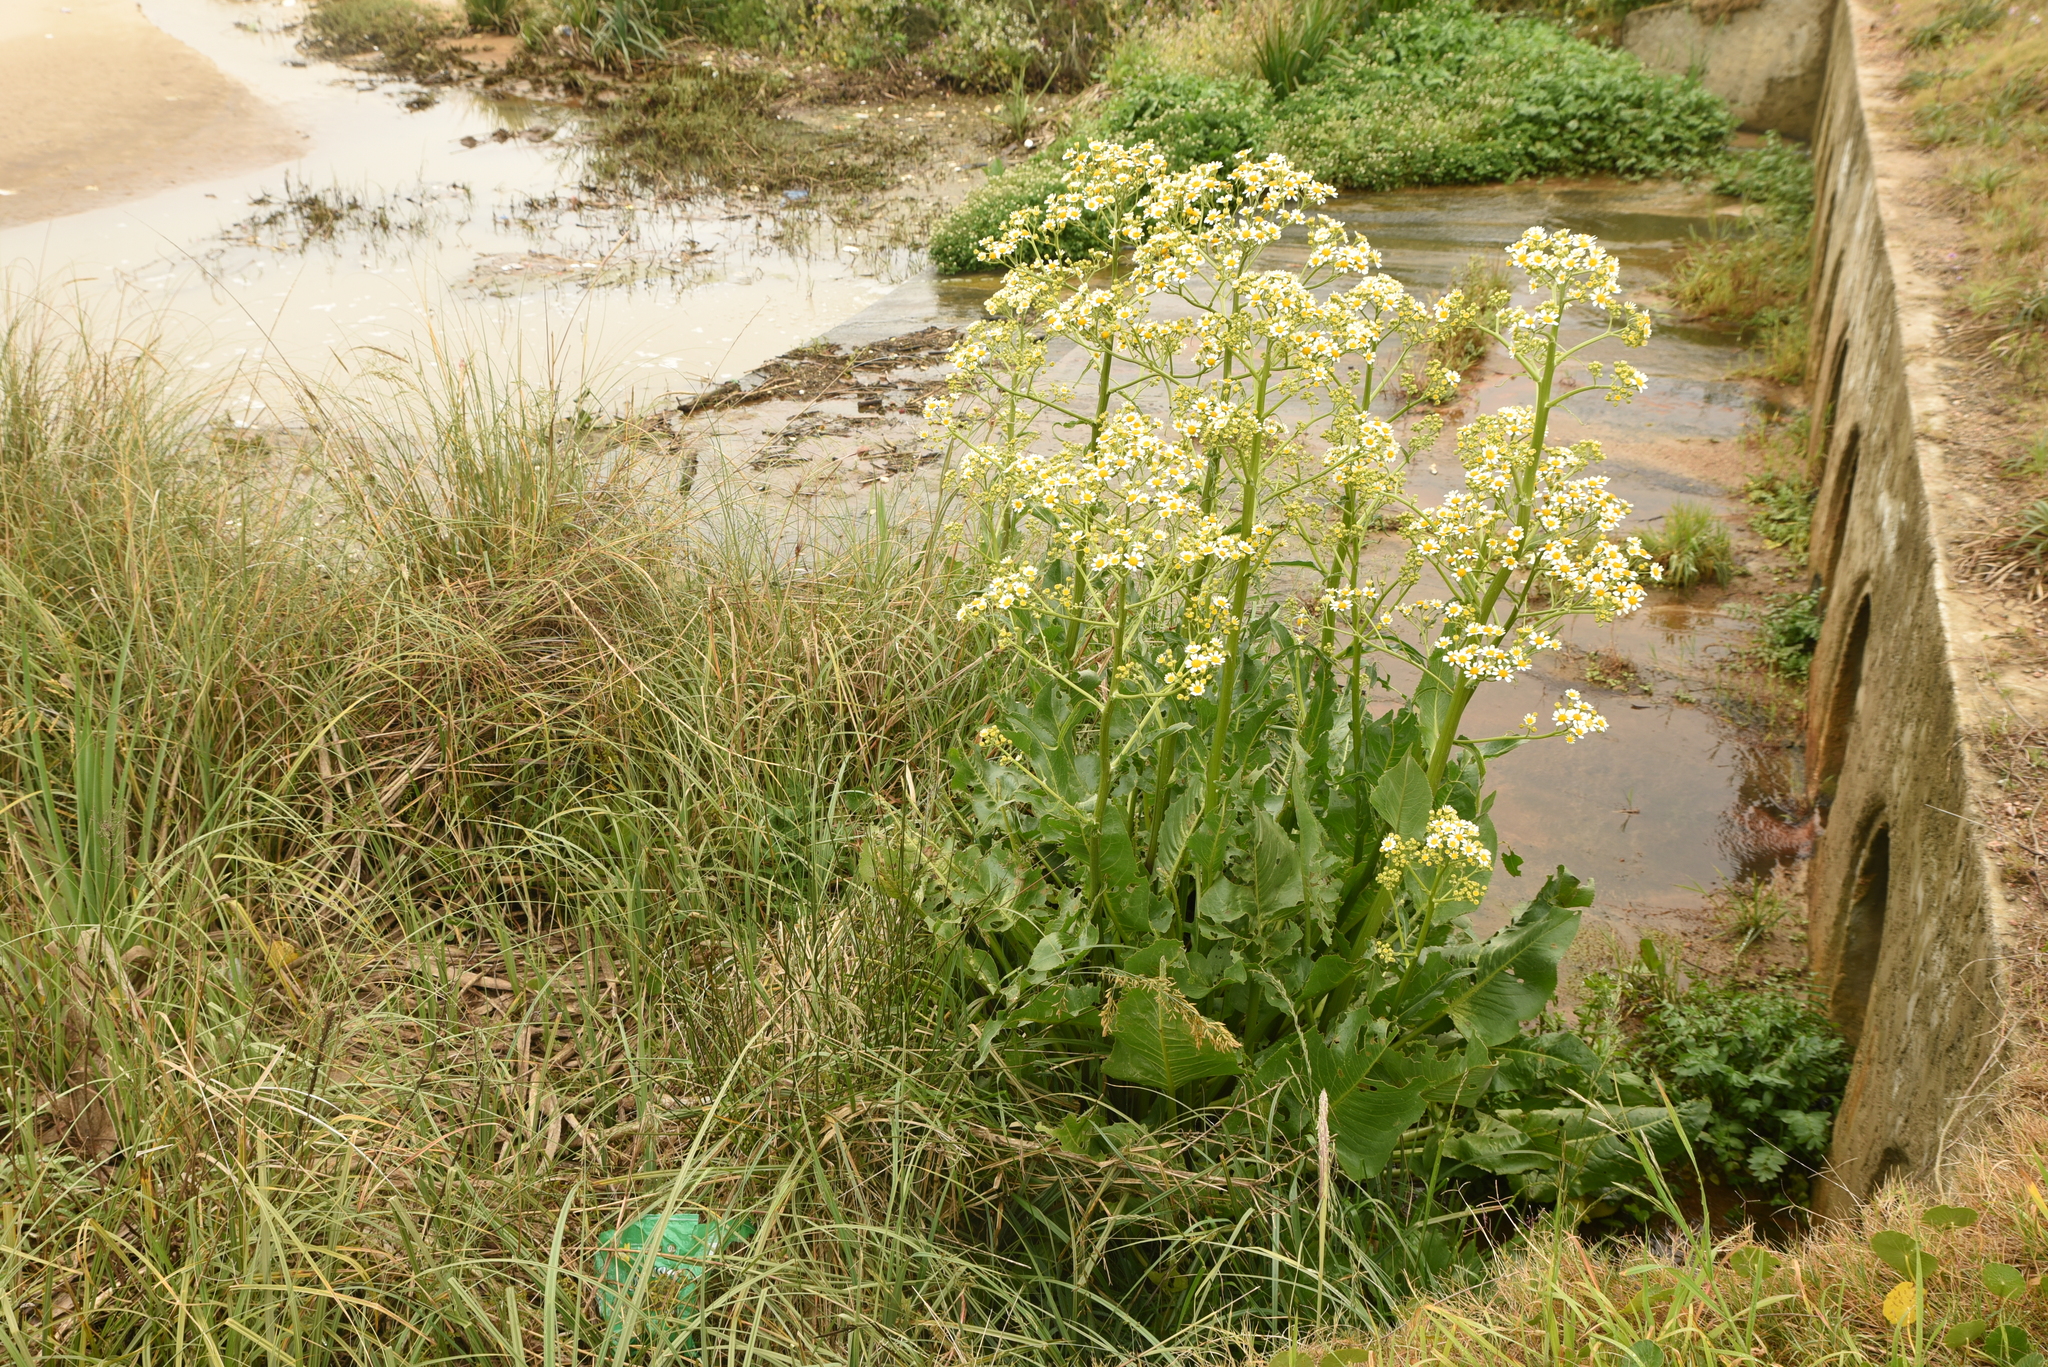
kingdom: Plantae
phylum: Tracheophyta
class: Magnoliopsida
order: Asterales
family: Asteraceae
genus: Senecio
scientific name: Senecio bonariensis
